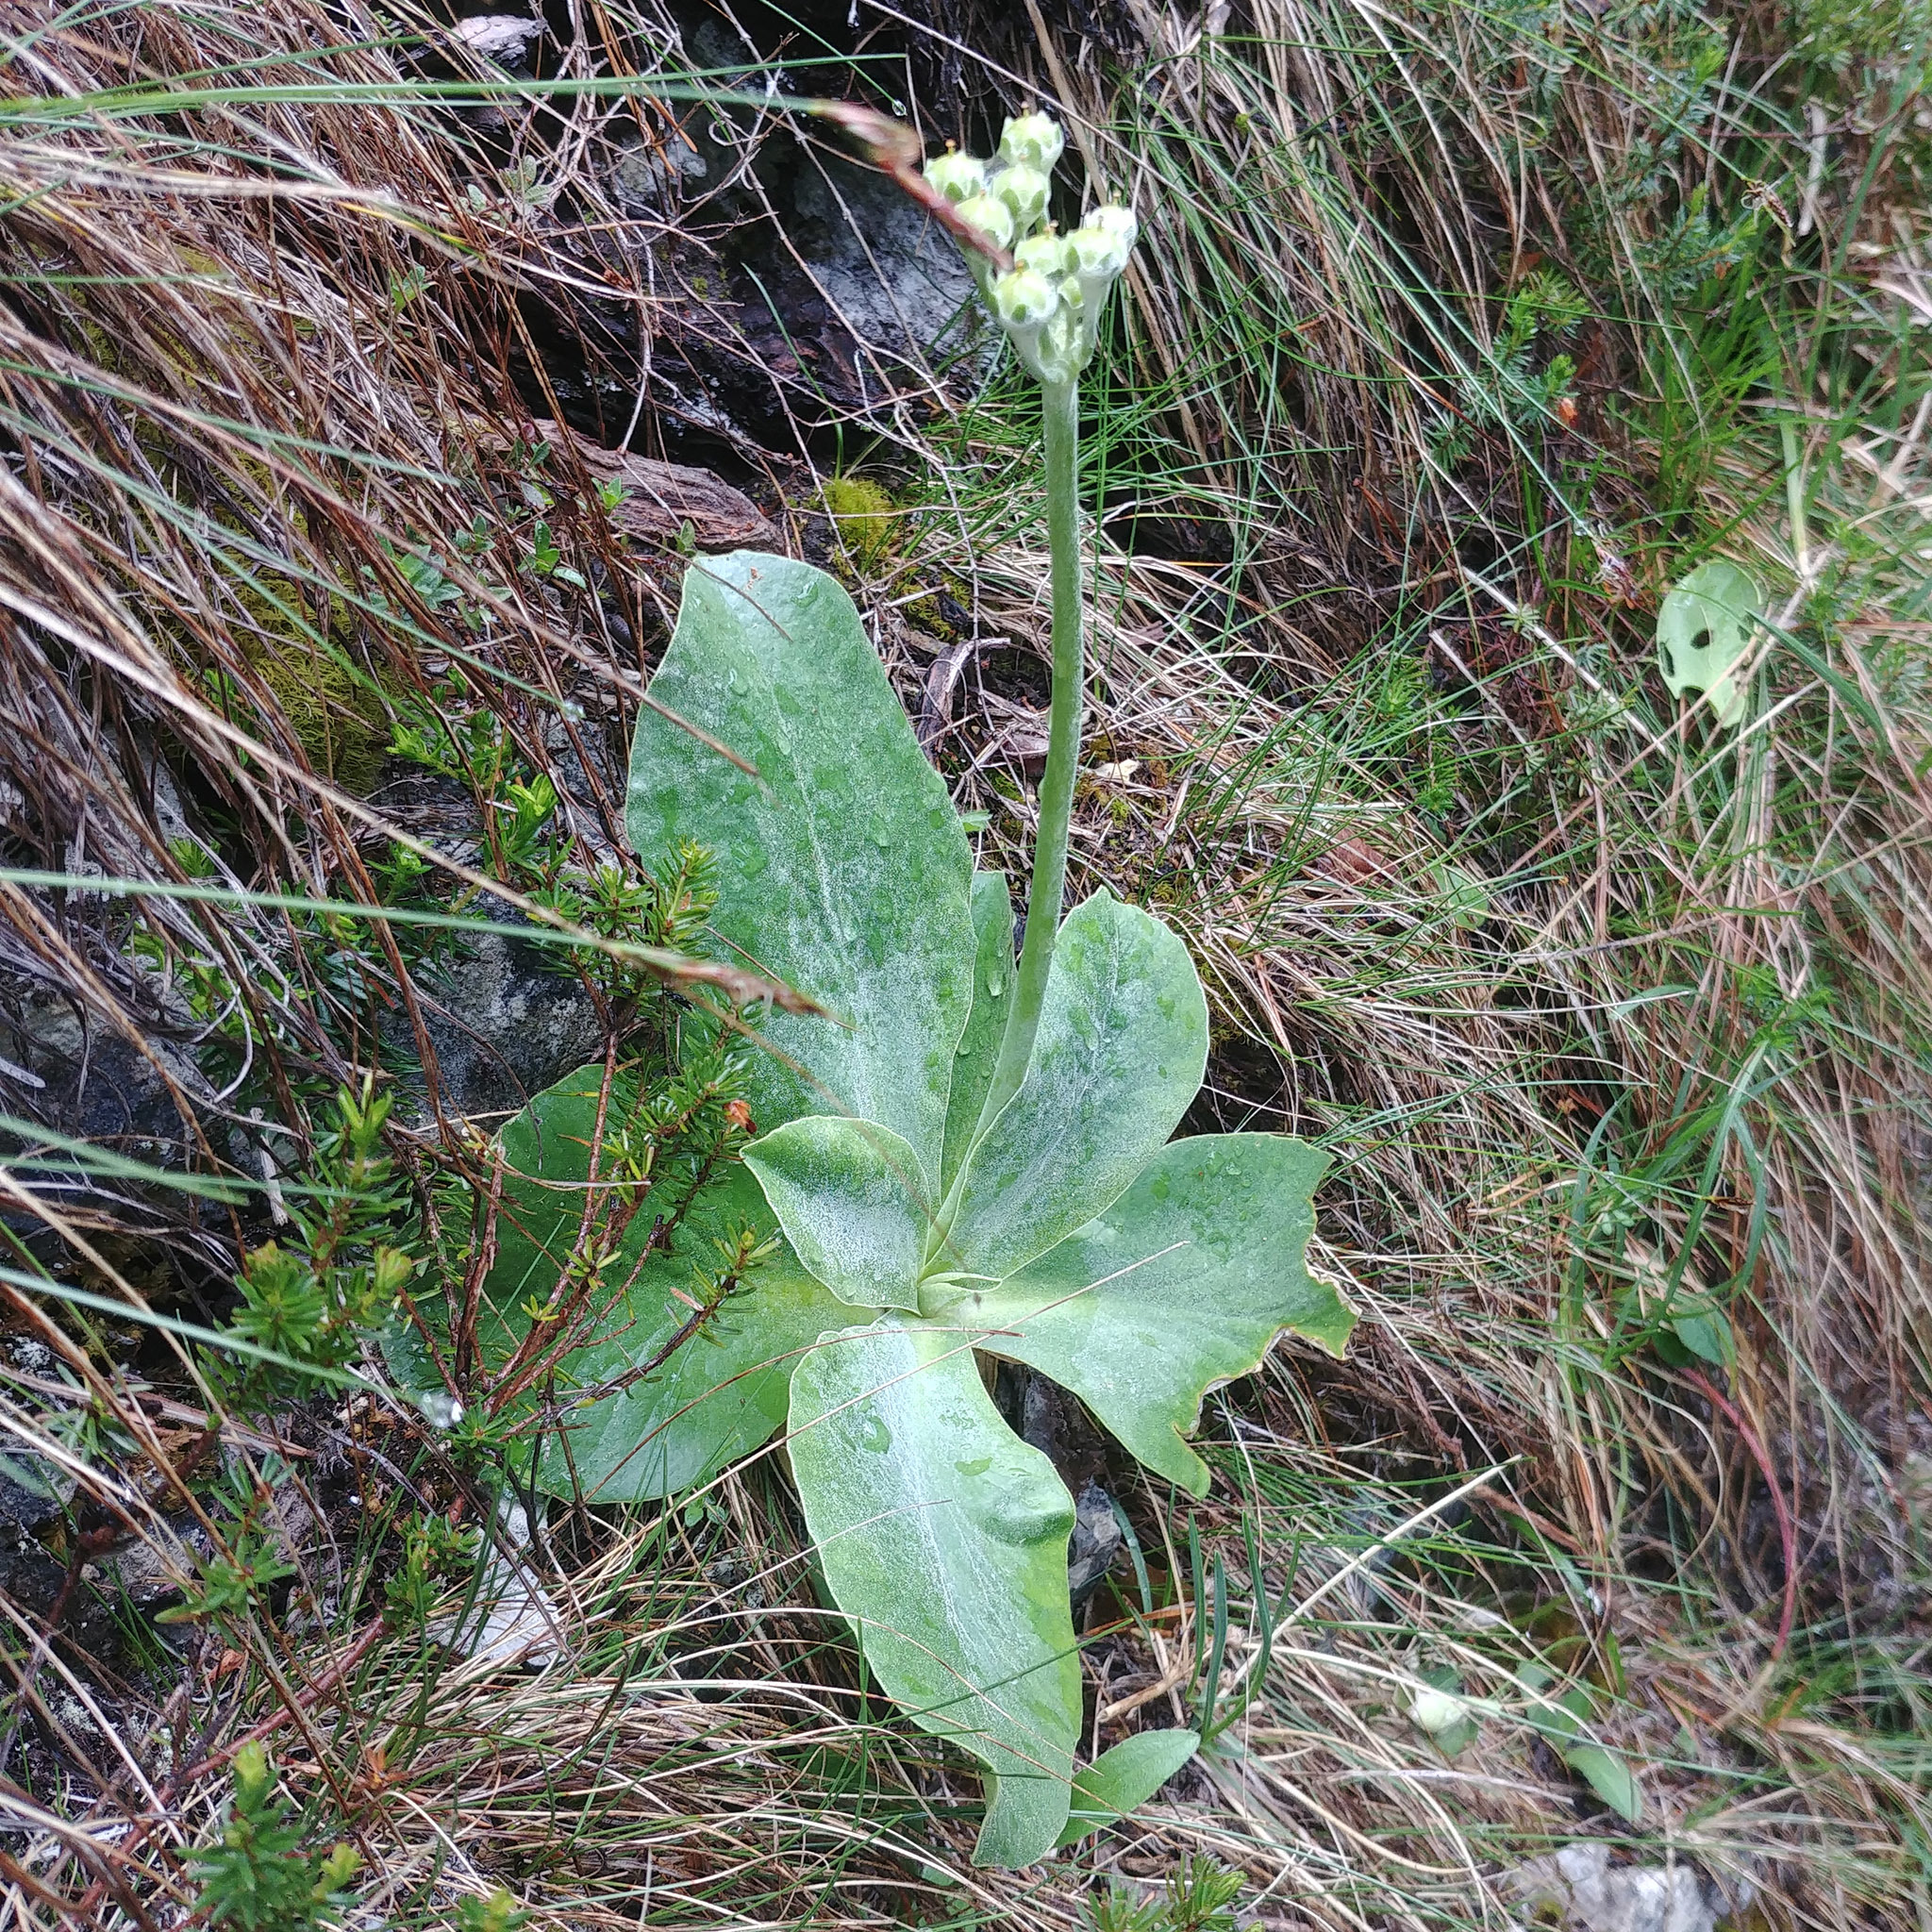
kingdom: Plantae
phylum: Tracheophyta
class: Magnoliopsida
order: Ericales
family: Primulaceae
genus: Primula
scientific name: Primula auricula
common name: Auricula
